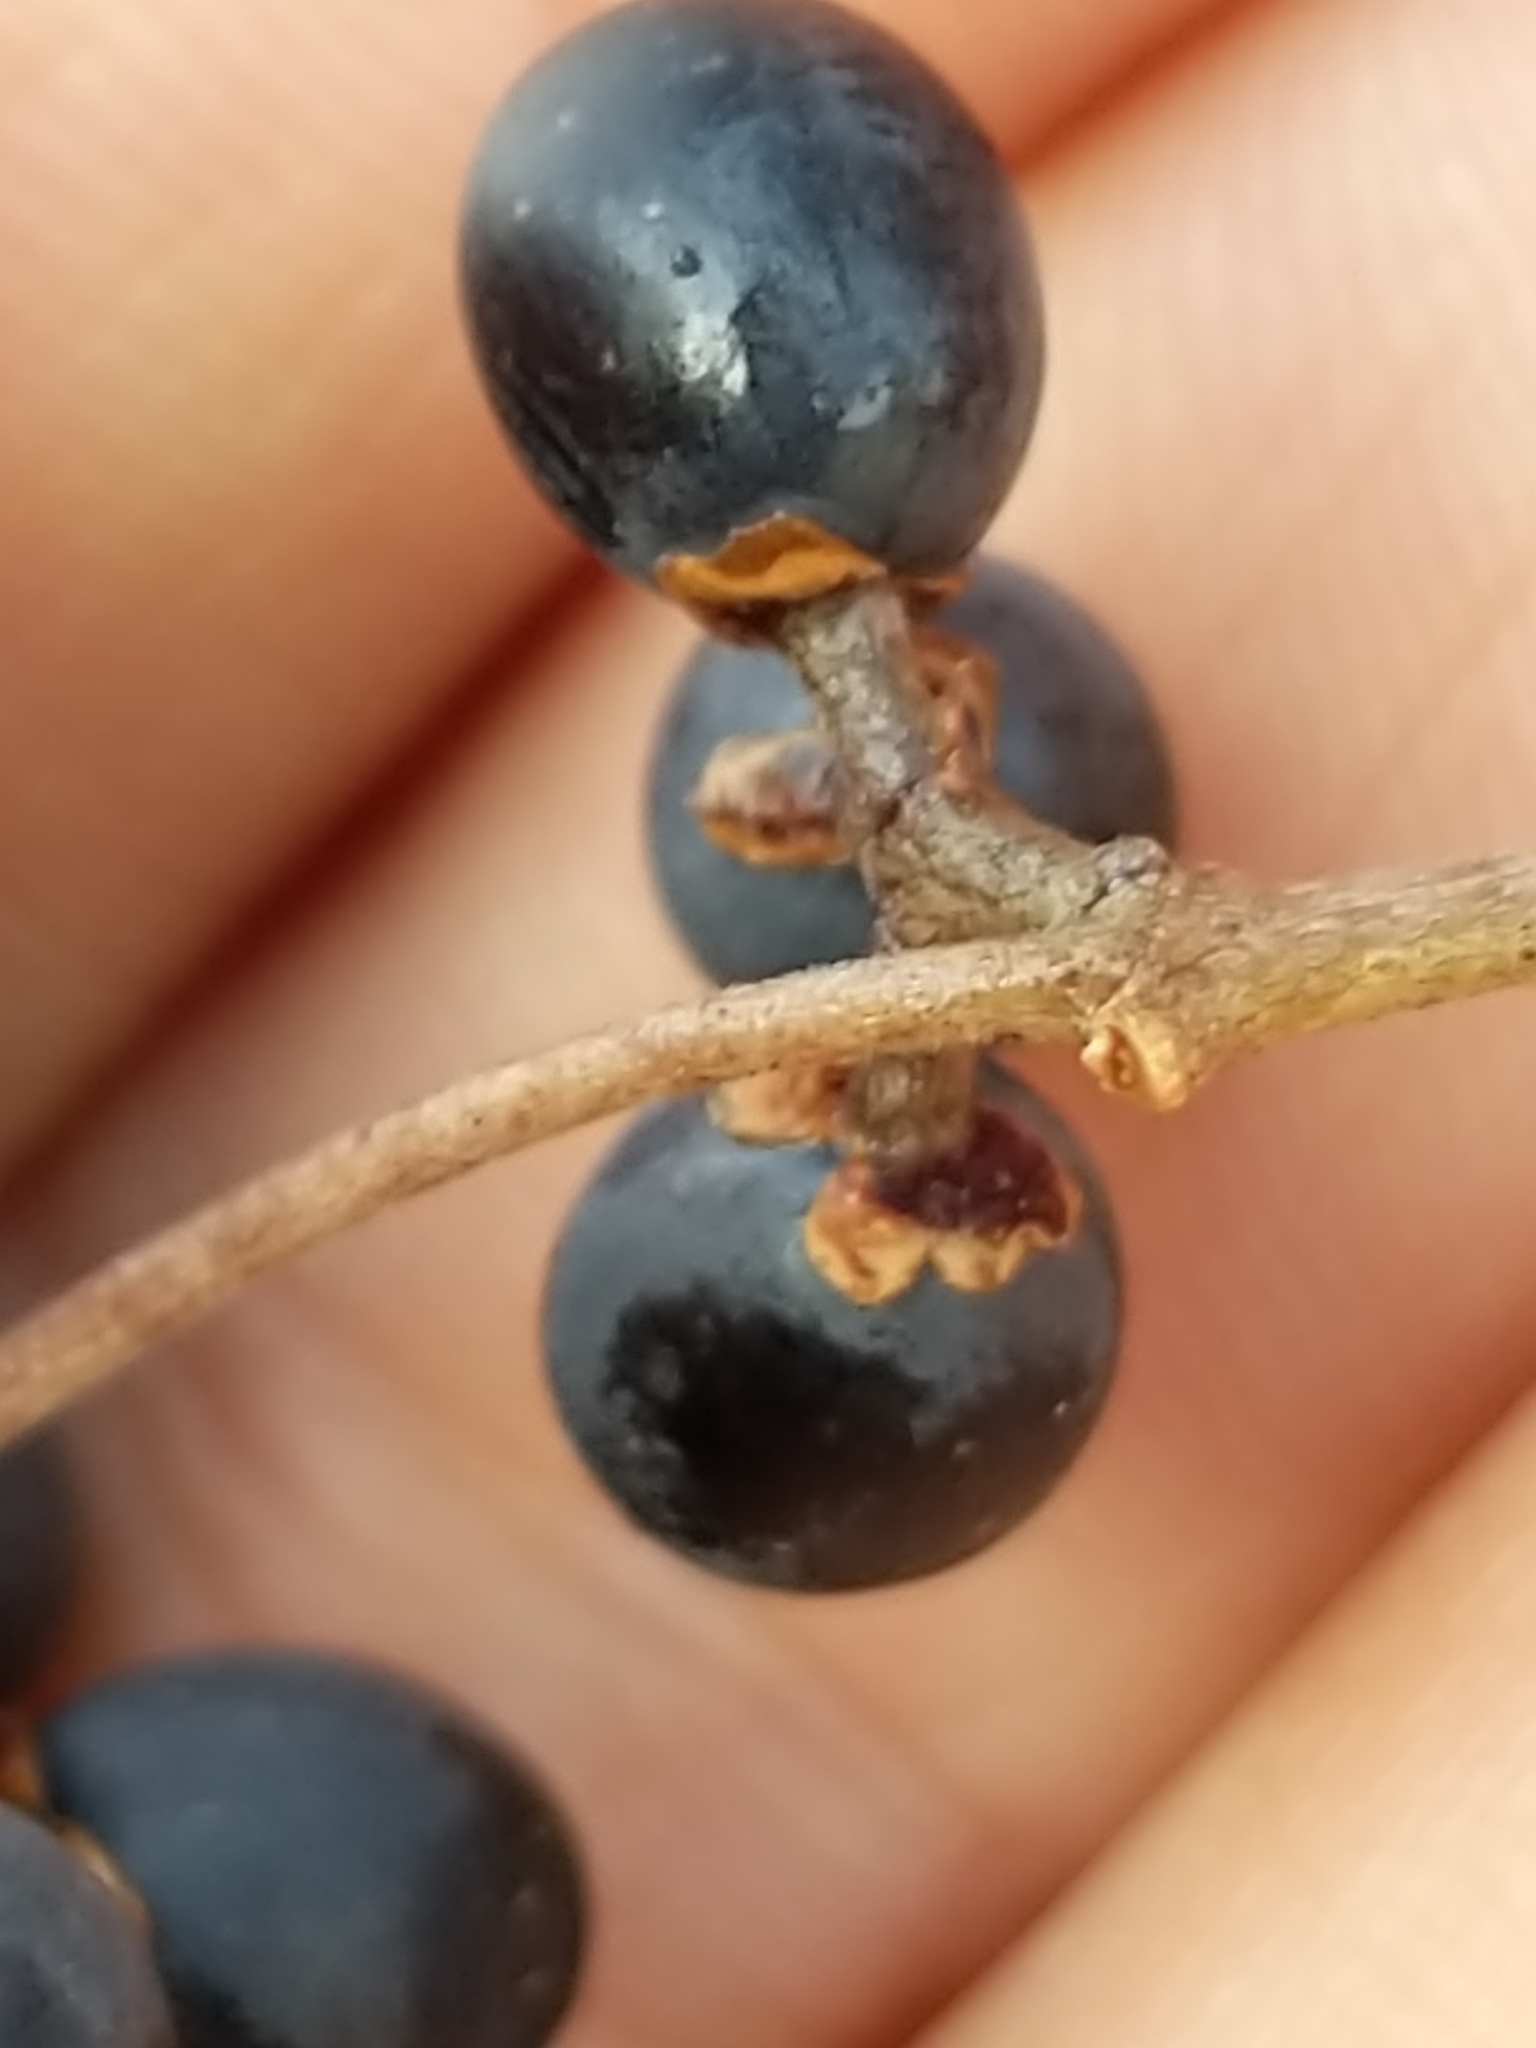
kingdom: Plantae
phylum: Tracheophyta
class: Magnoliopsida
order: Lamiales
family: Oleaceae
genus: Ligustrum
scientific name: Ligustrum obtusifolium
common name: Border privet
